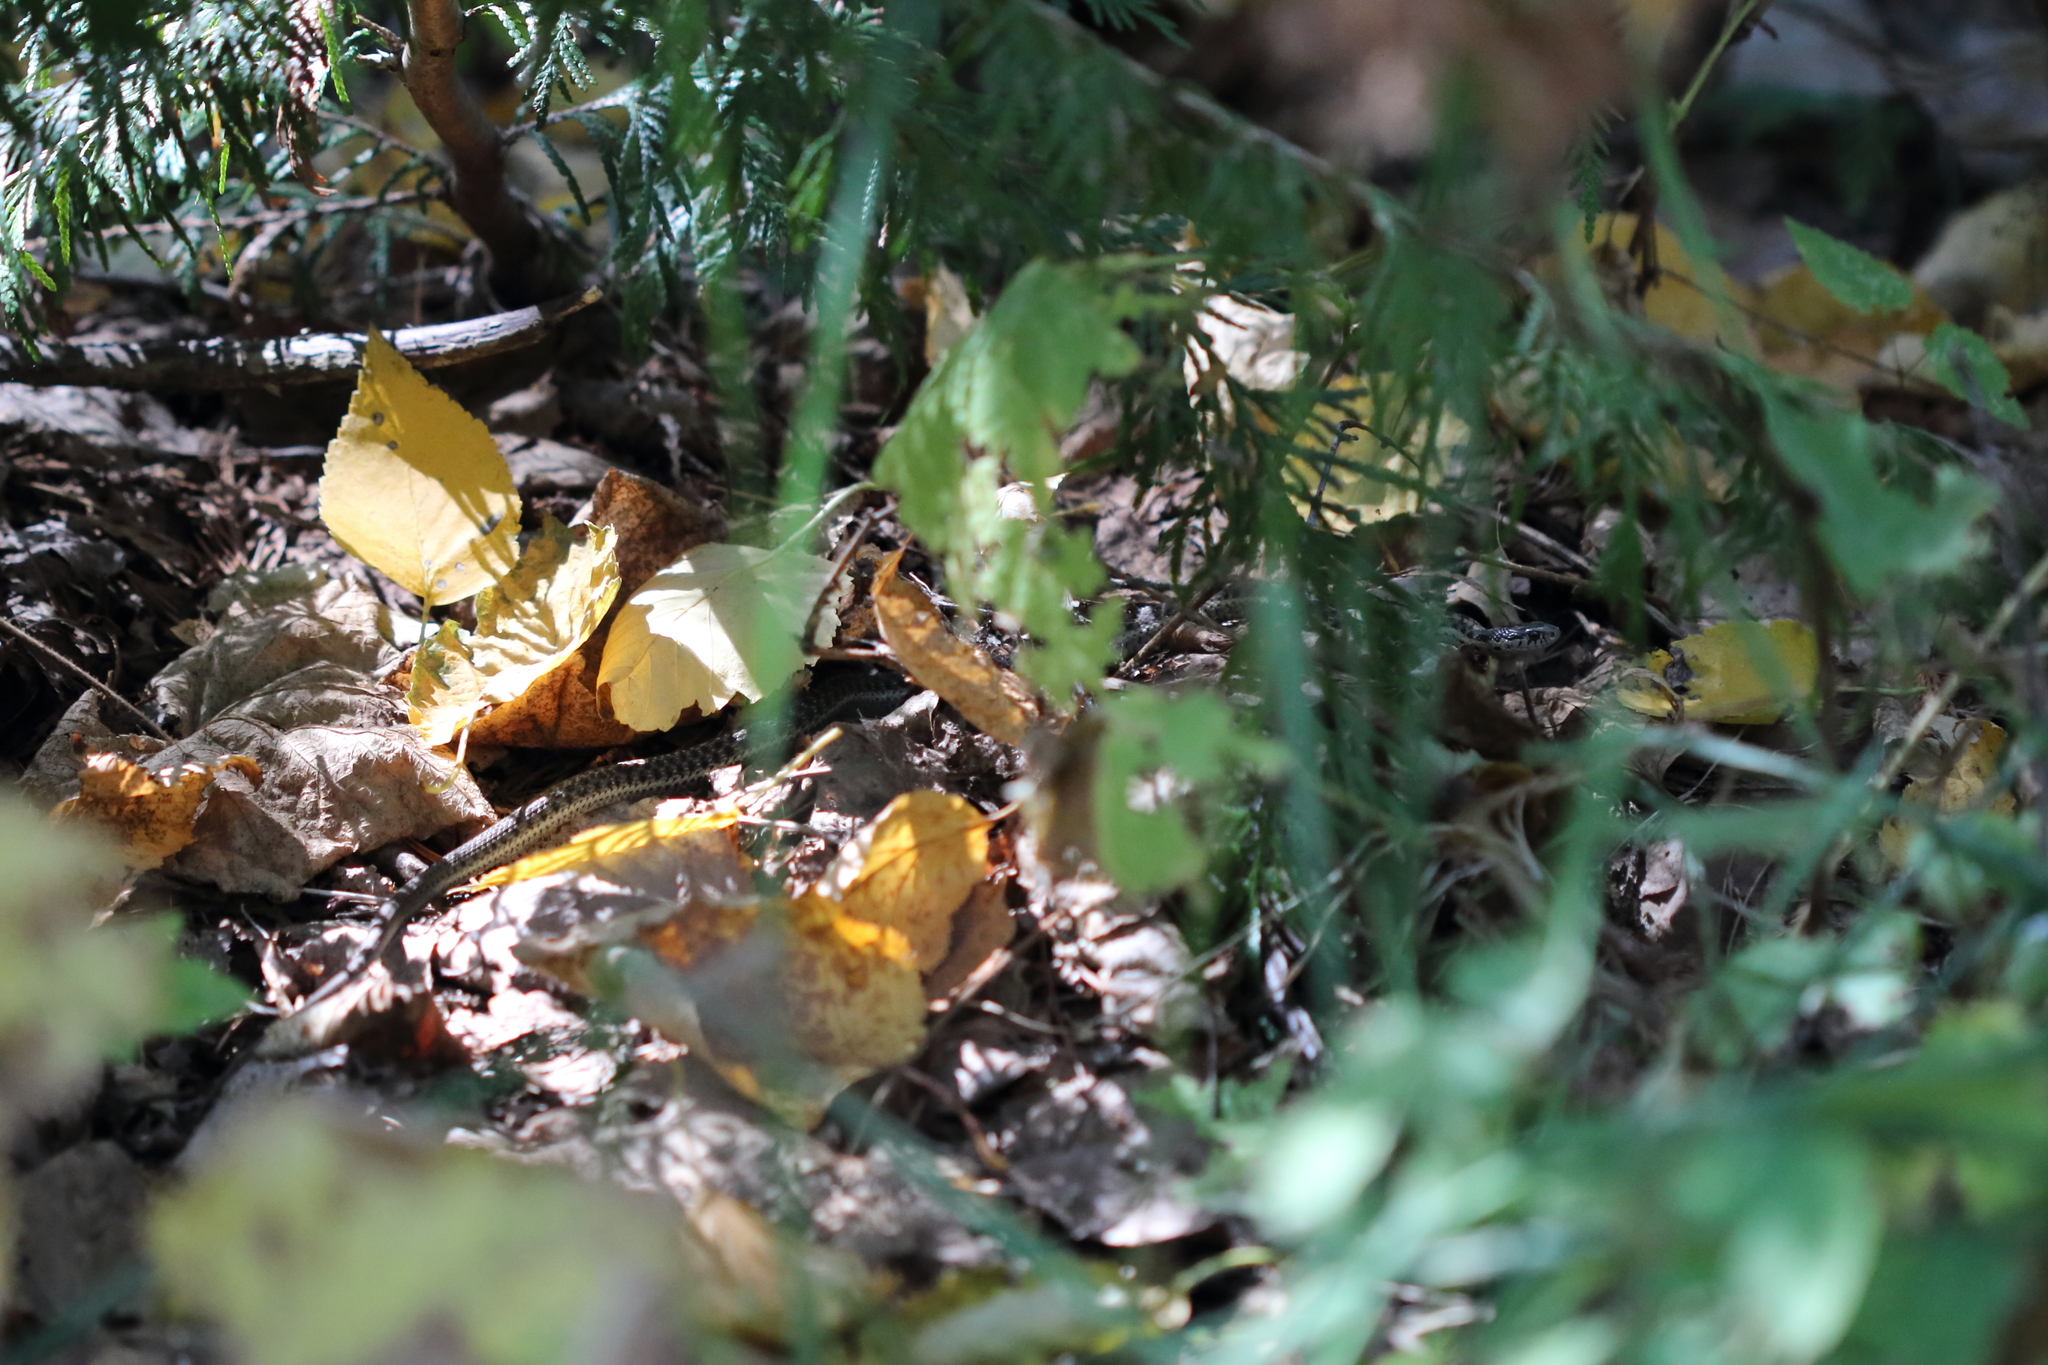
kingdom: Animalia
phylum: Chordata
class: Squamata
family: Colubridae
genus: Thamnophis
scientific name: Thamnophis elegans
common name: Western terrestrial garter snake
